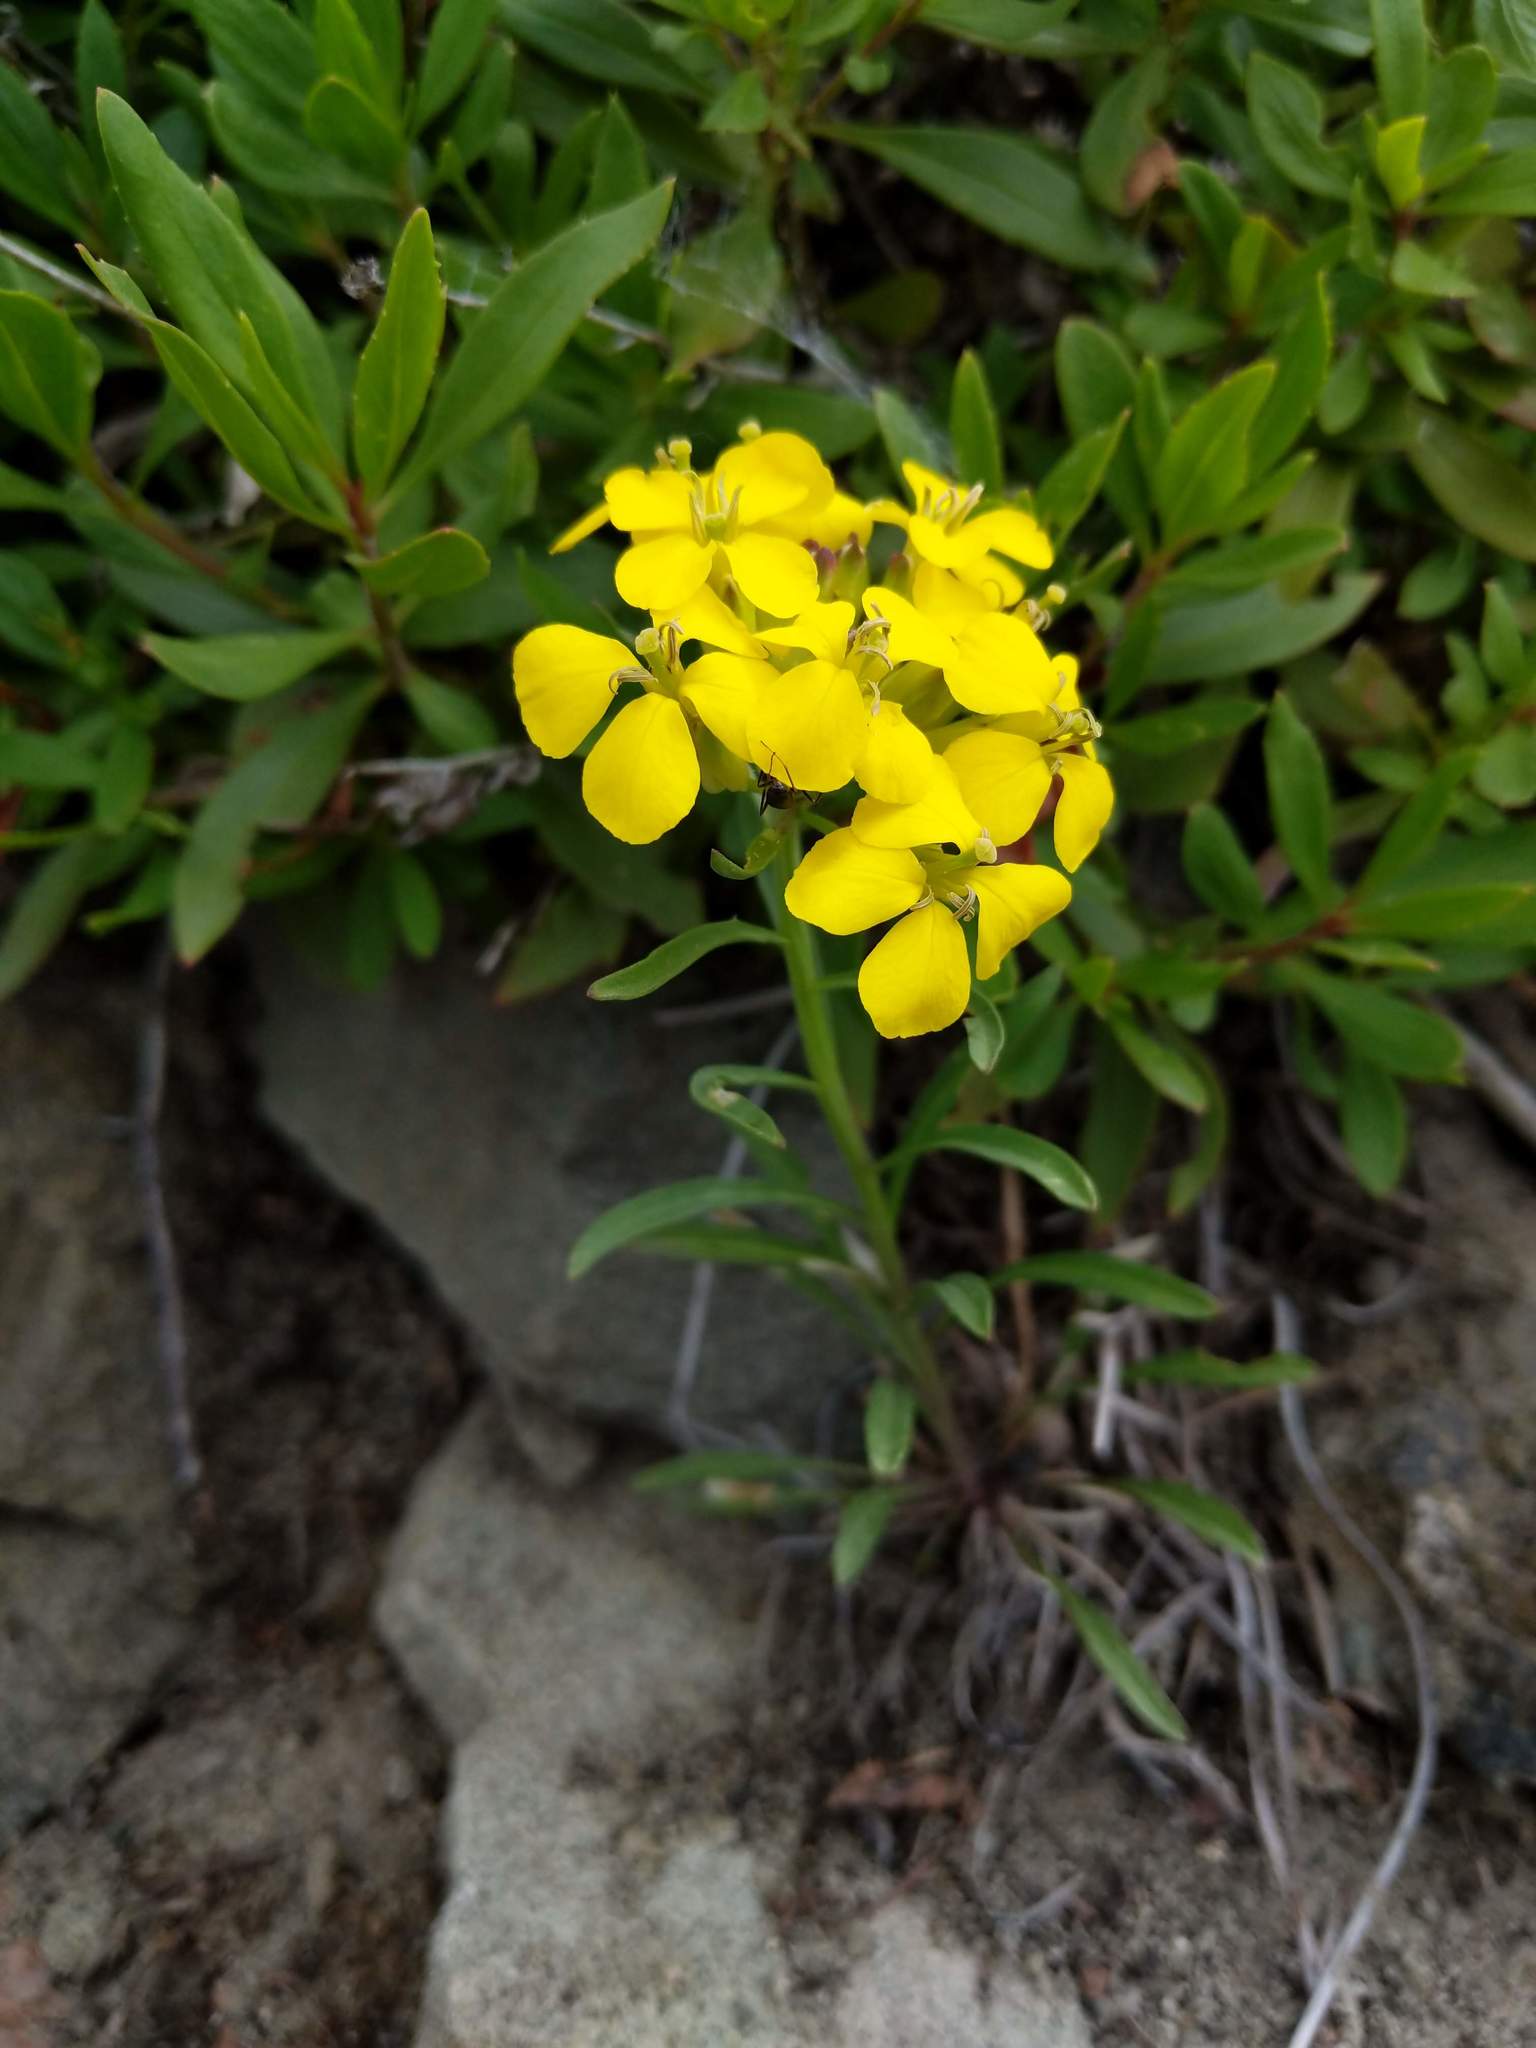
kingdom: Plantae
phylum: Tracheophyta
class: Magnoliopsida
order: Brassicales
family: Brassicaceae
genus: Erysimum
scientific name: Erysimum capitatum
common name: Western wallflower
